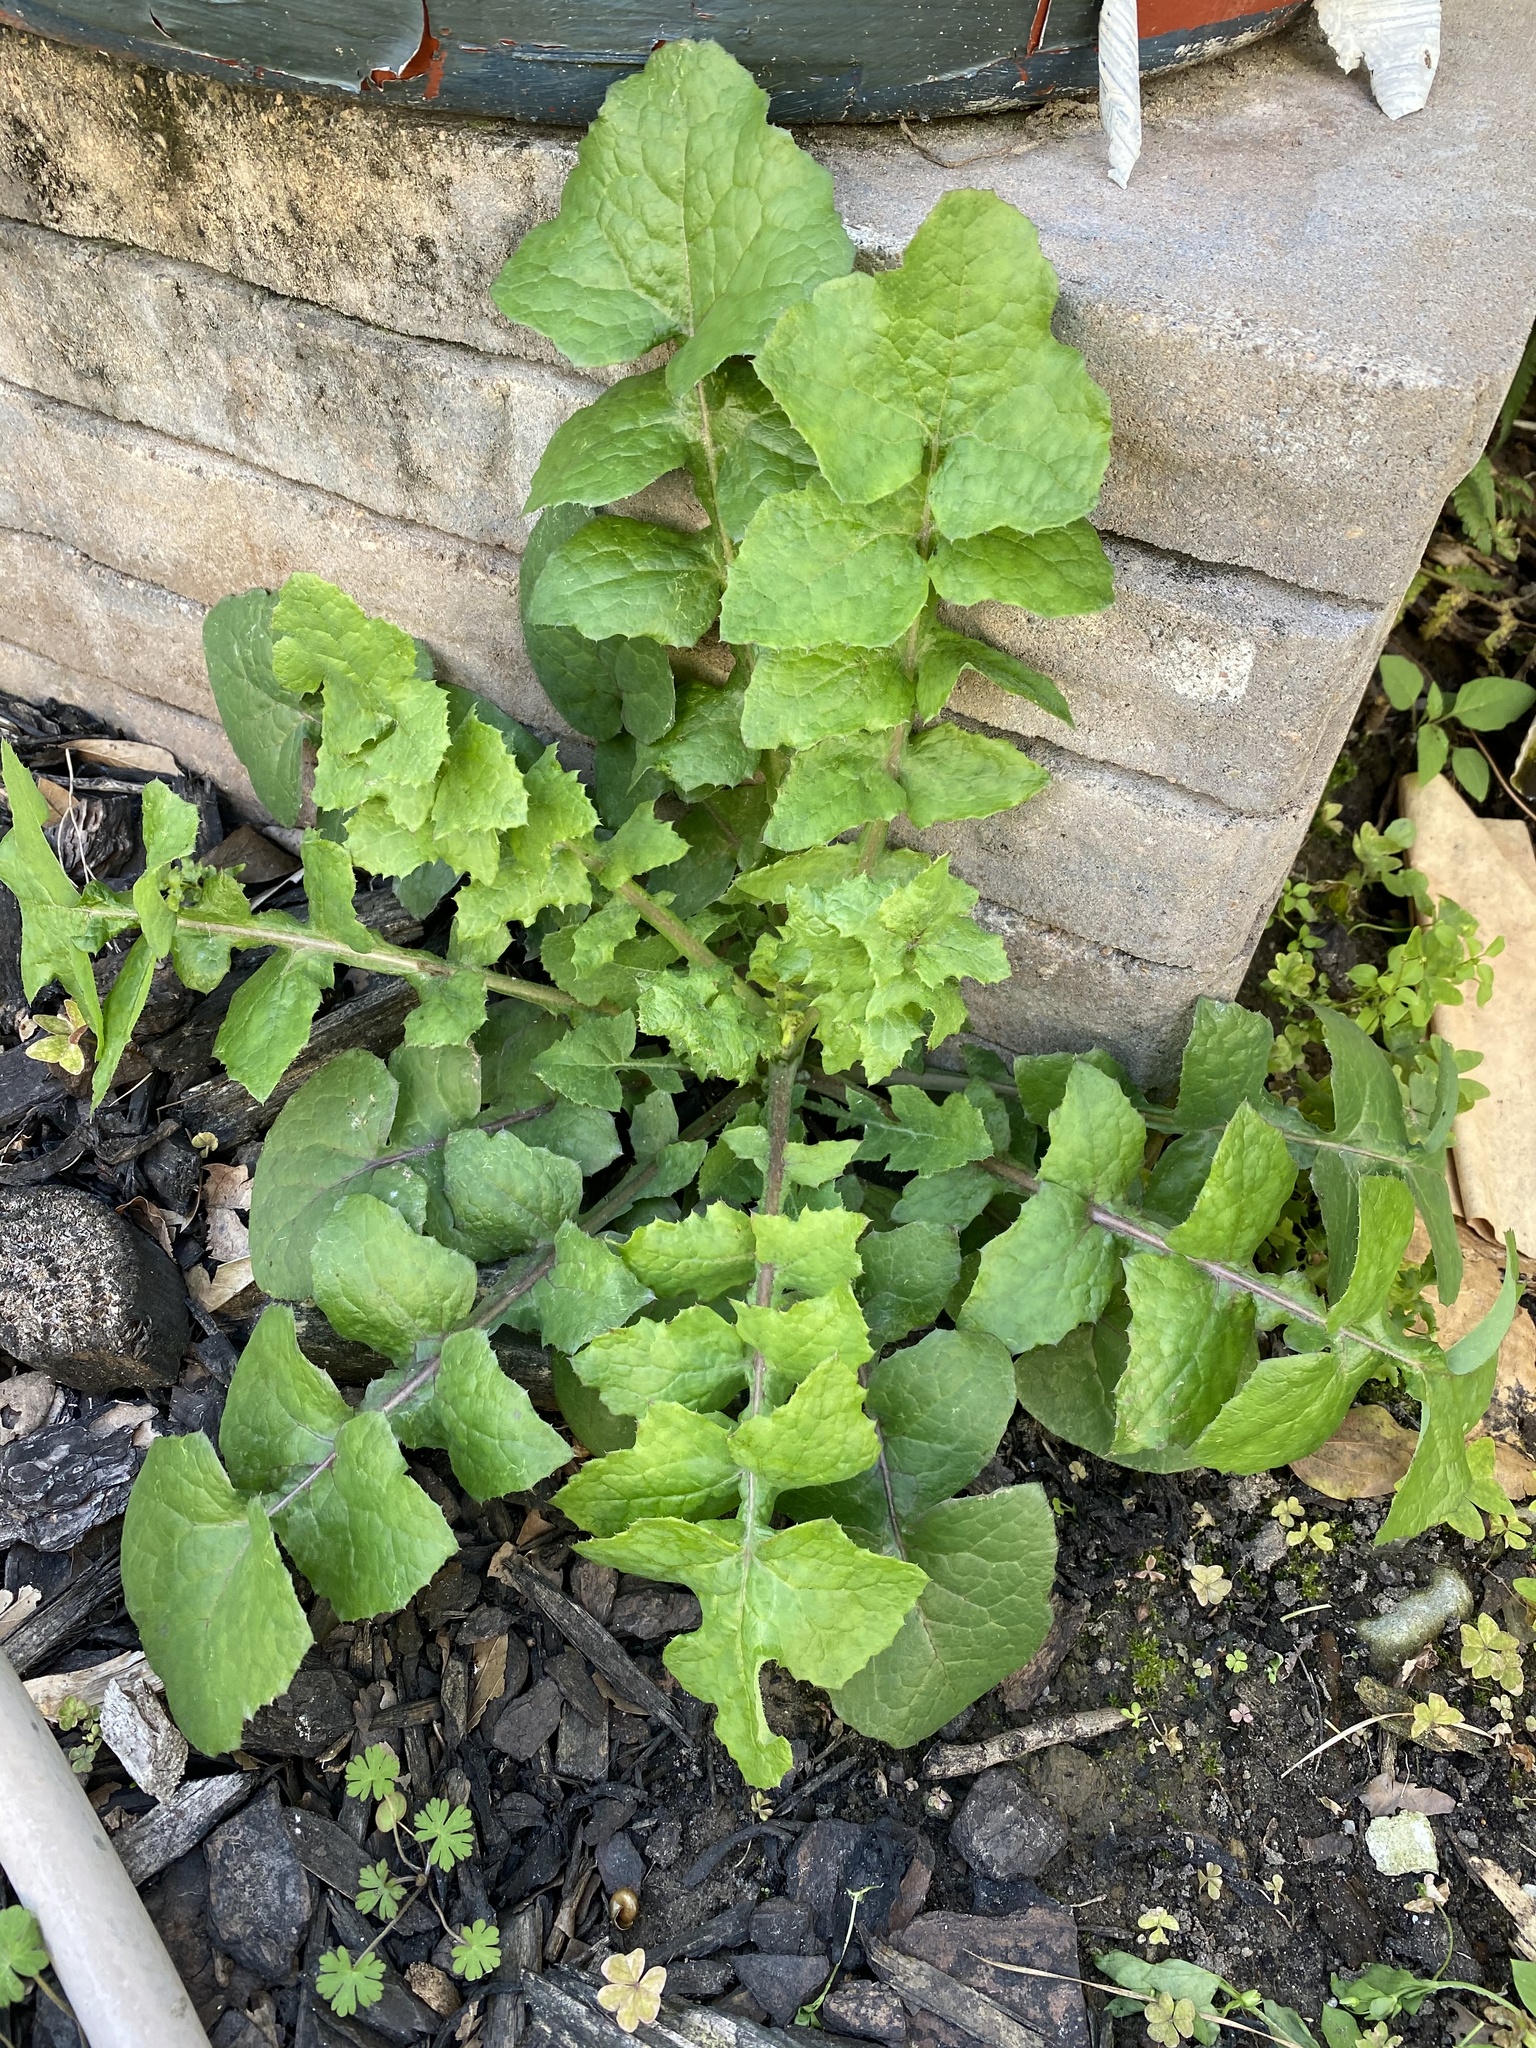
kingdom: Plantae
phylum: Tracheophyta
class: Magnoliopsida
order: Asterales
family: Asteraceae
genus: Sonchus
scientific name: Sonchus oleraceus
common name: Common sowthistle
